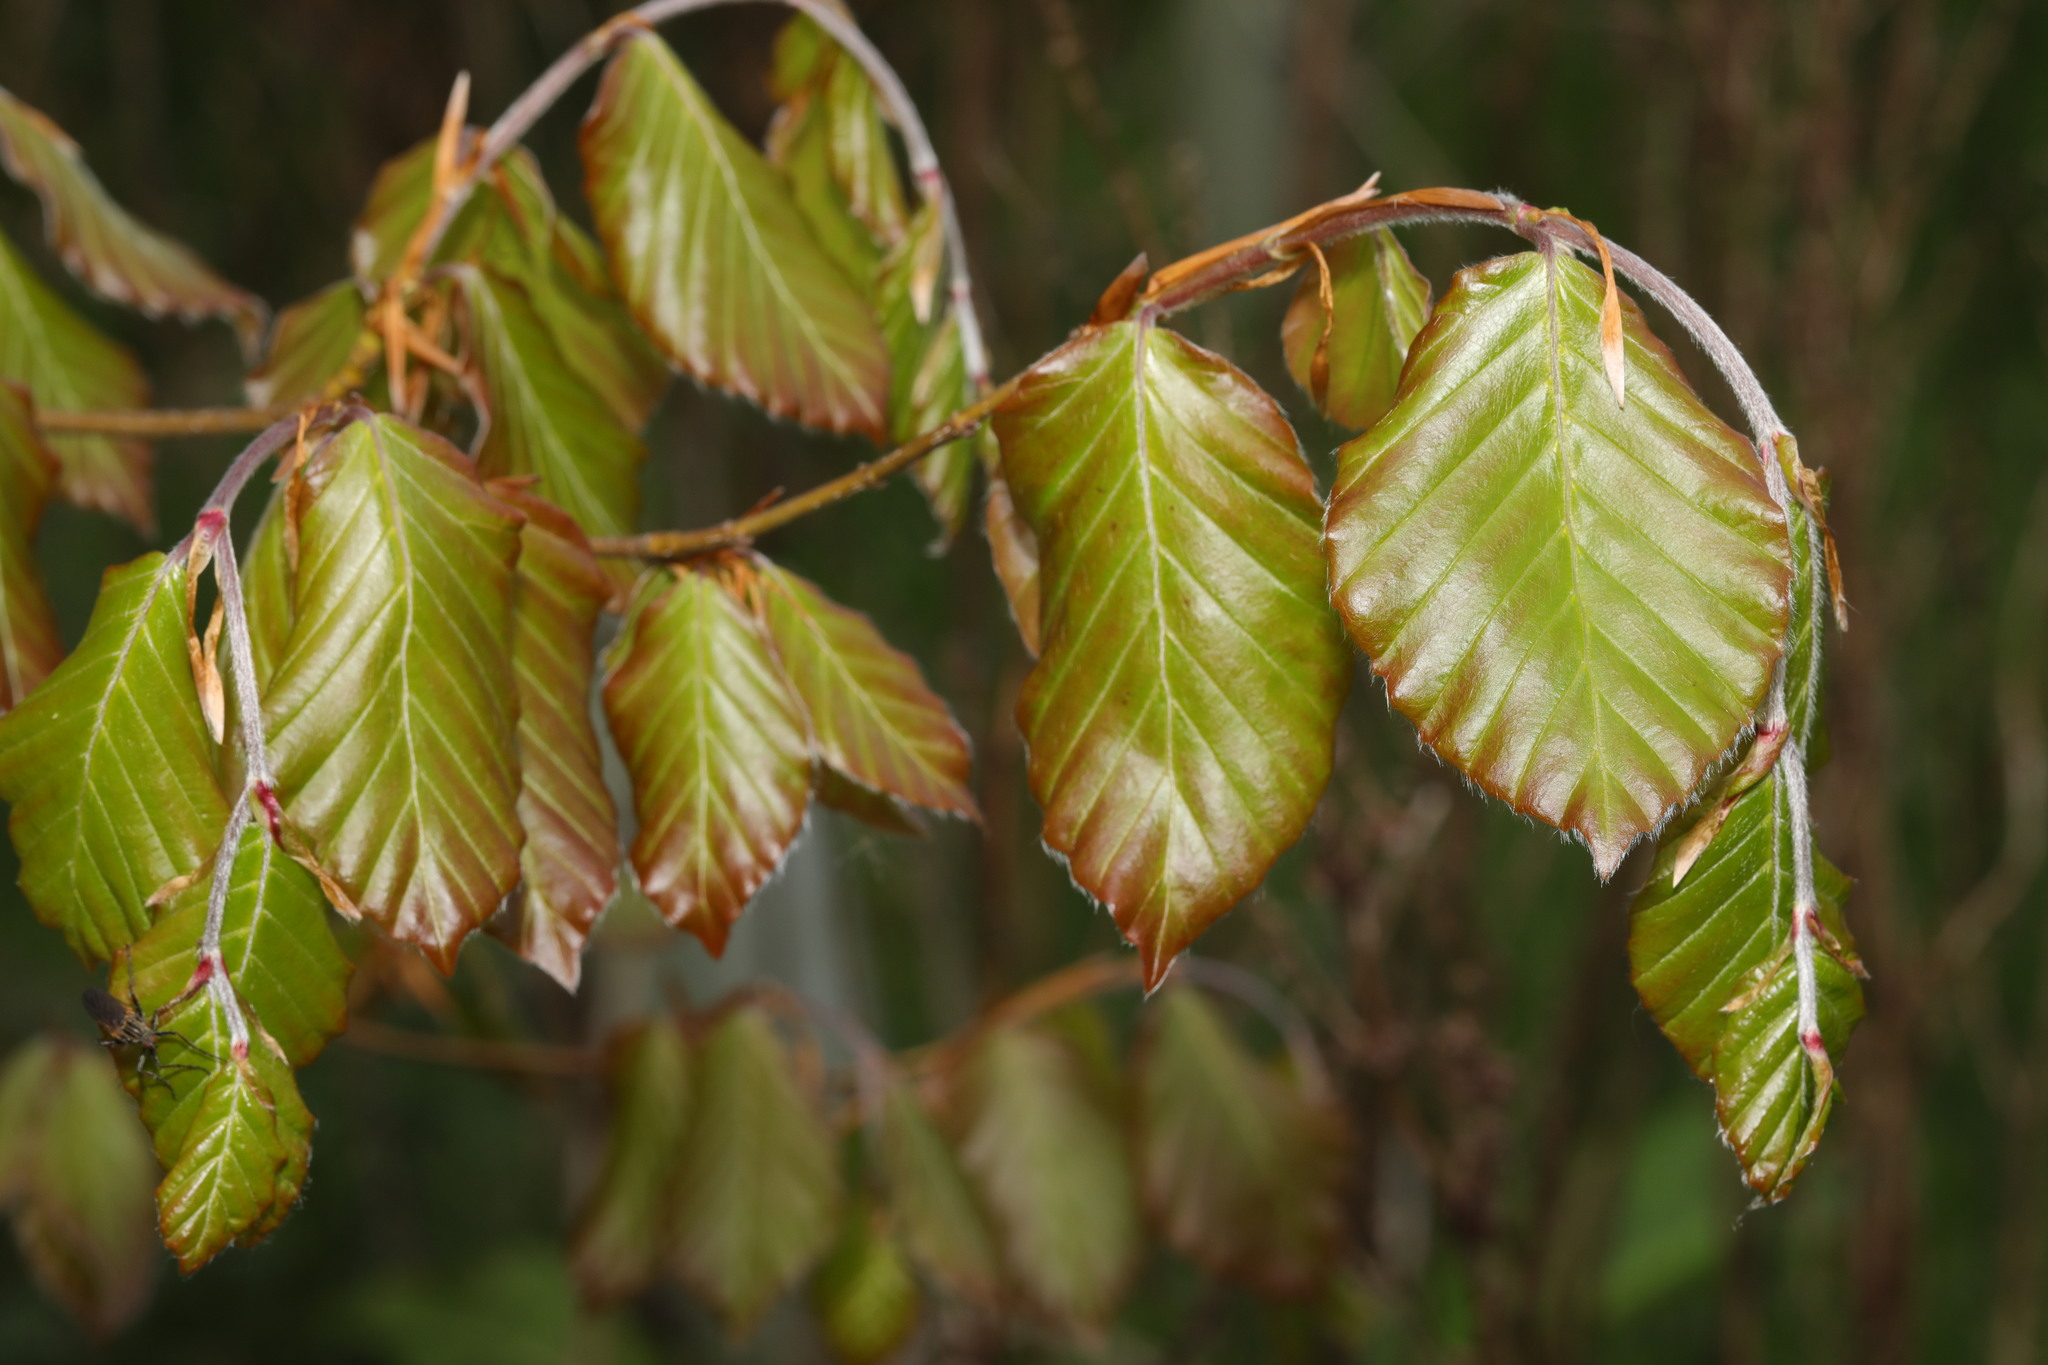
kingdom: Plantae
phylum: Tracheophyta
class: Magnoliopsida
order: Fagales
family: Fagaceae
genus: Fagus
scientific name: Fagus sylvatica
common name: Beech
